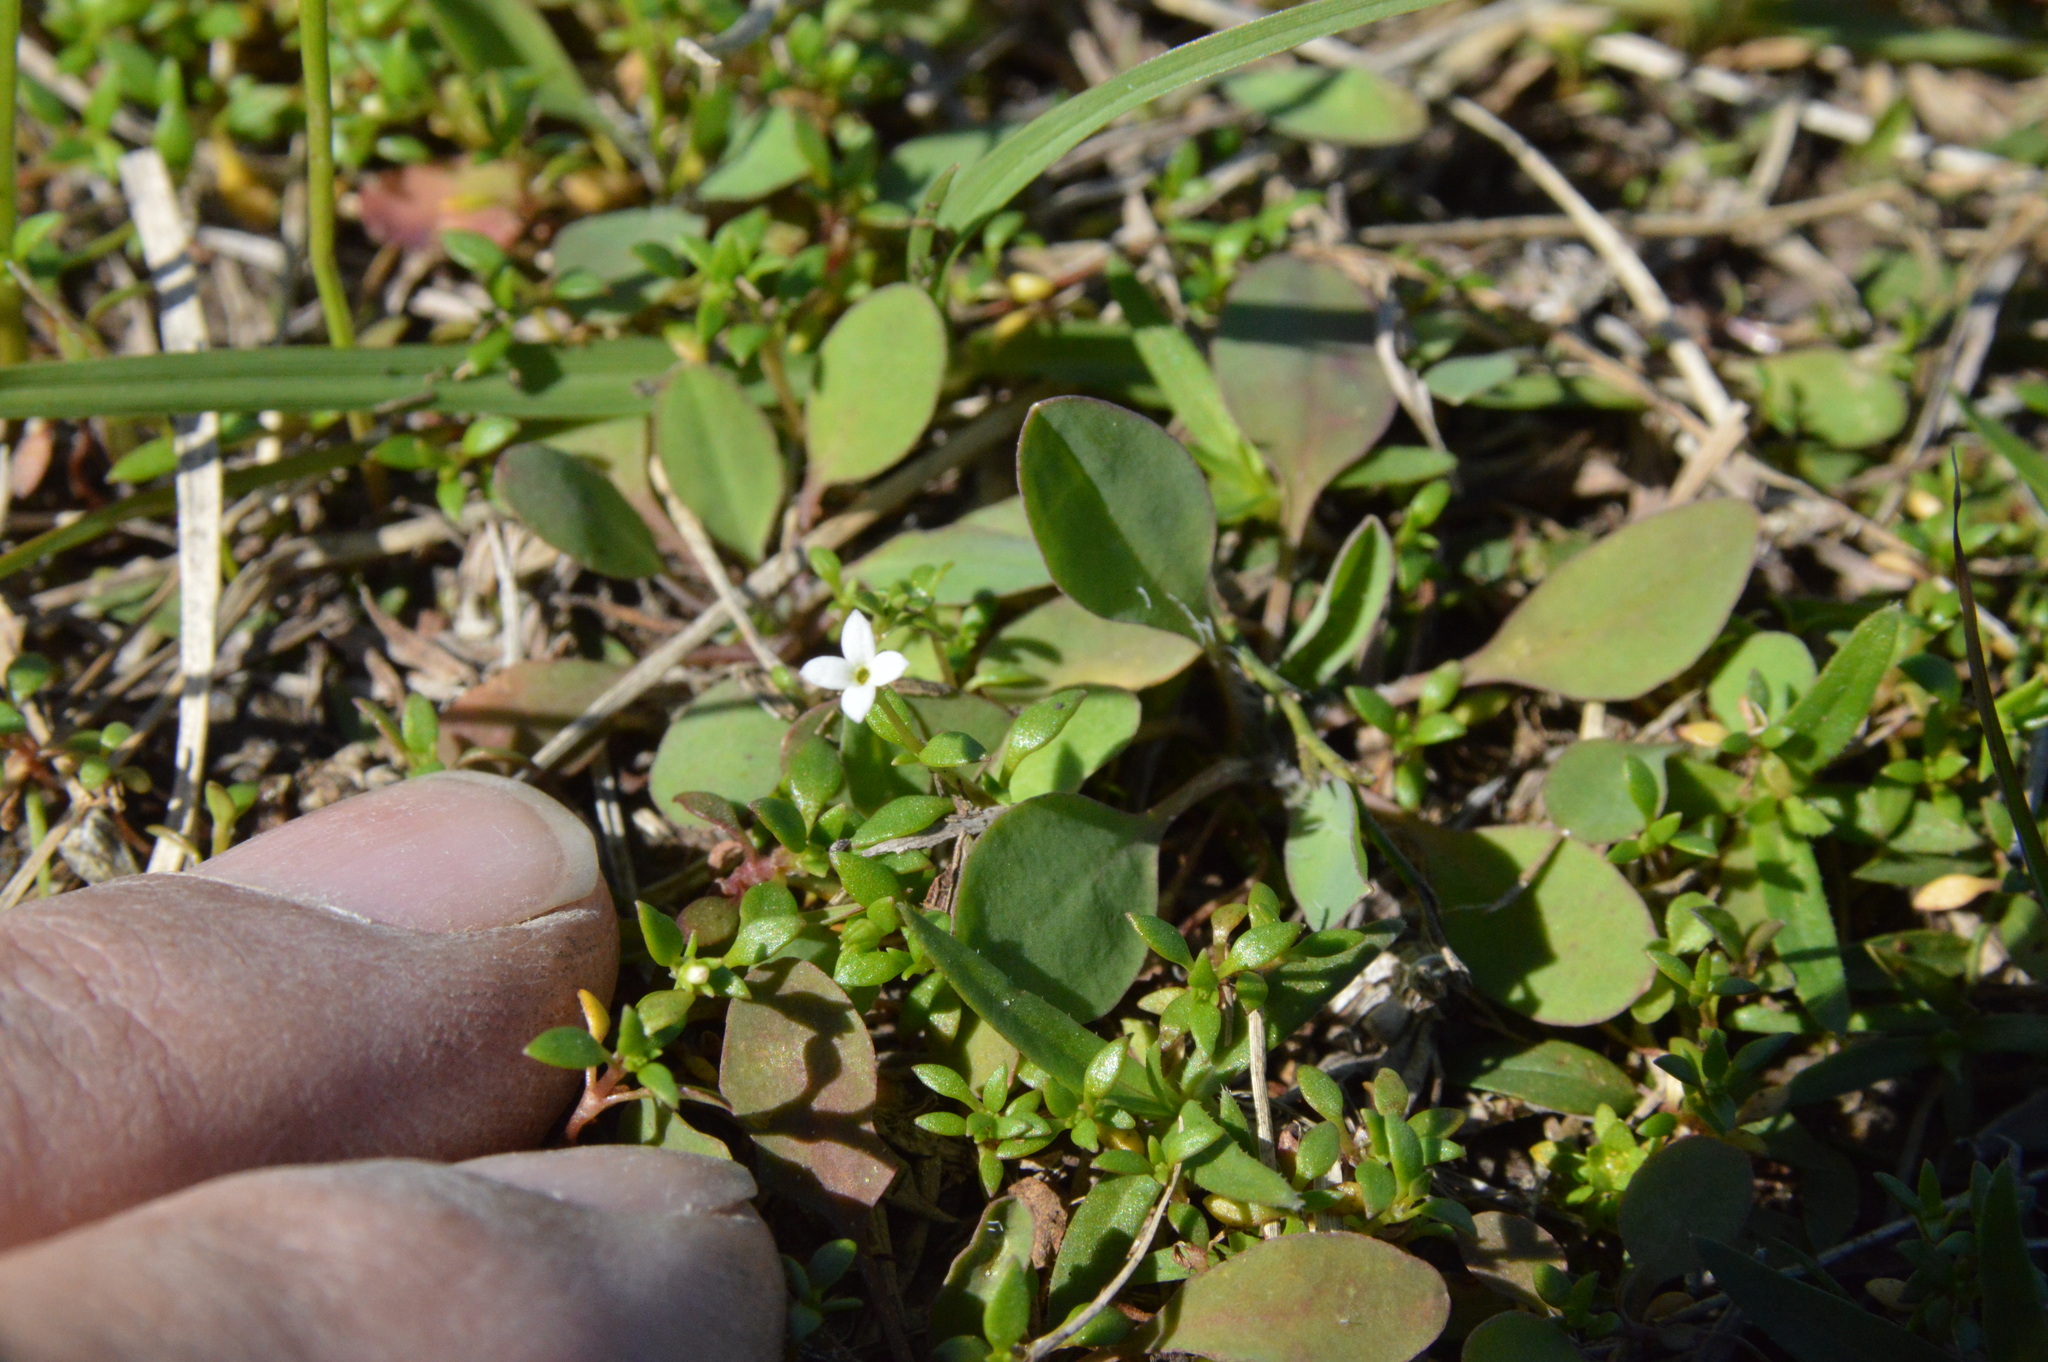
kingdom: Plantae
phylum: Tracheophyta
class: Magnoliopsida
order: Gentianales
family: Rubiaceae
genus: Houstonia
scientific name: Houstonia micrantha
